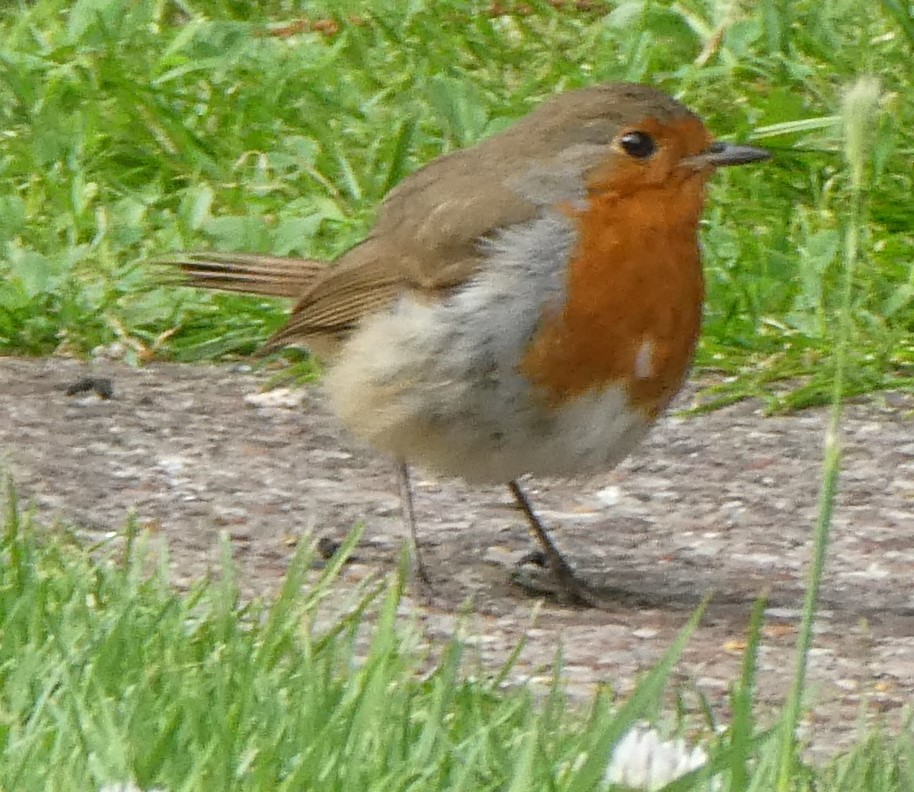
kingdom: Animalia
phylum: Chordata
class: Aves
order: Passeriformes
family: Muscicapidae
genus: Erithacus
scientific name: Erithacus rubecula
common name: European robin
